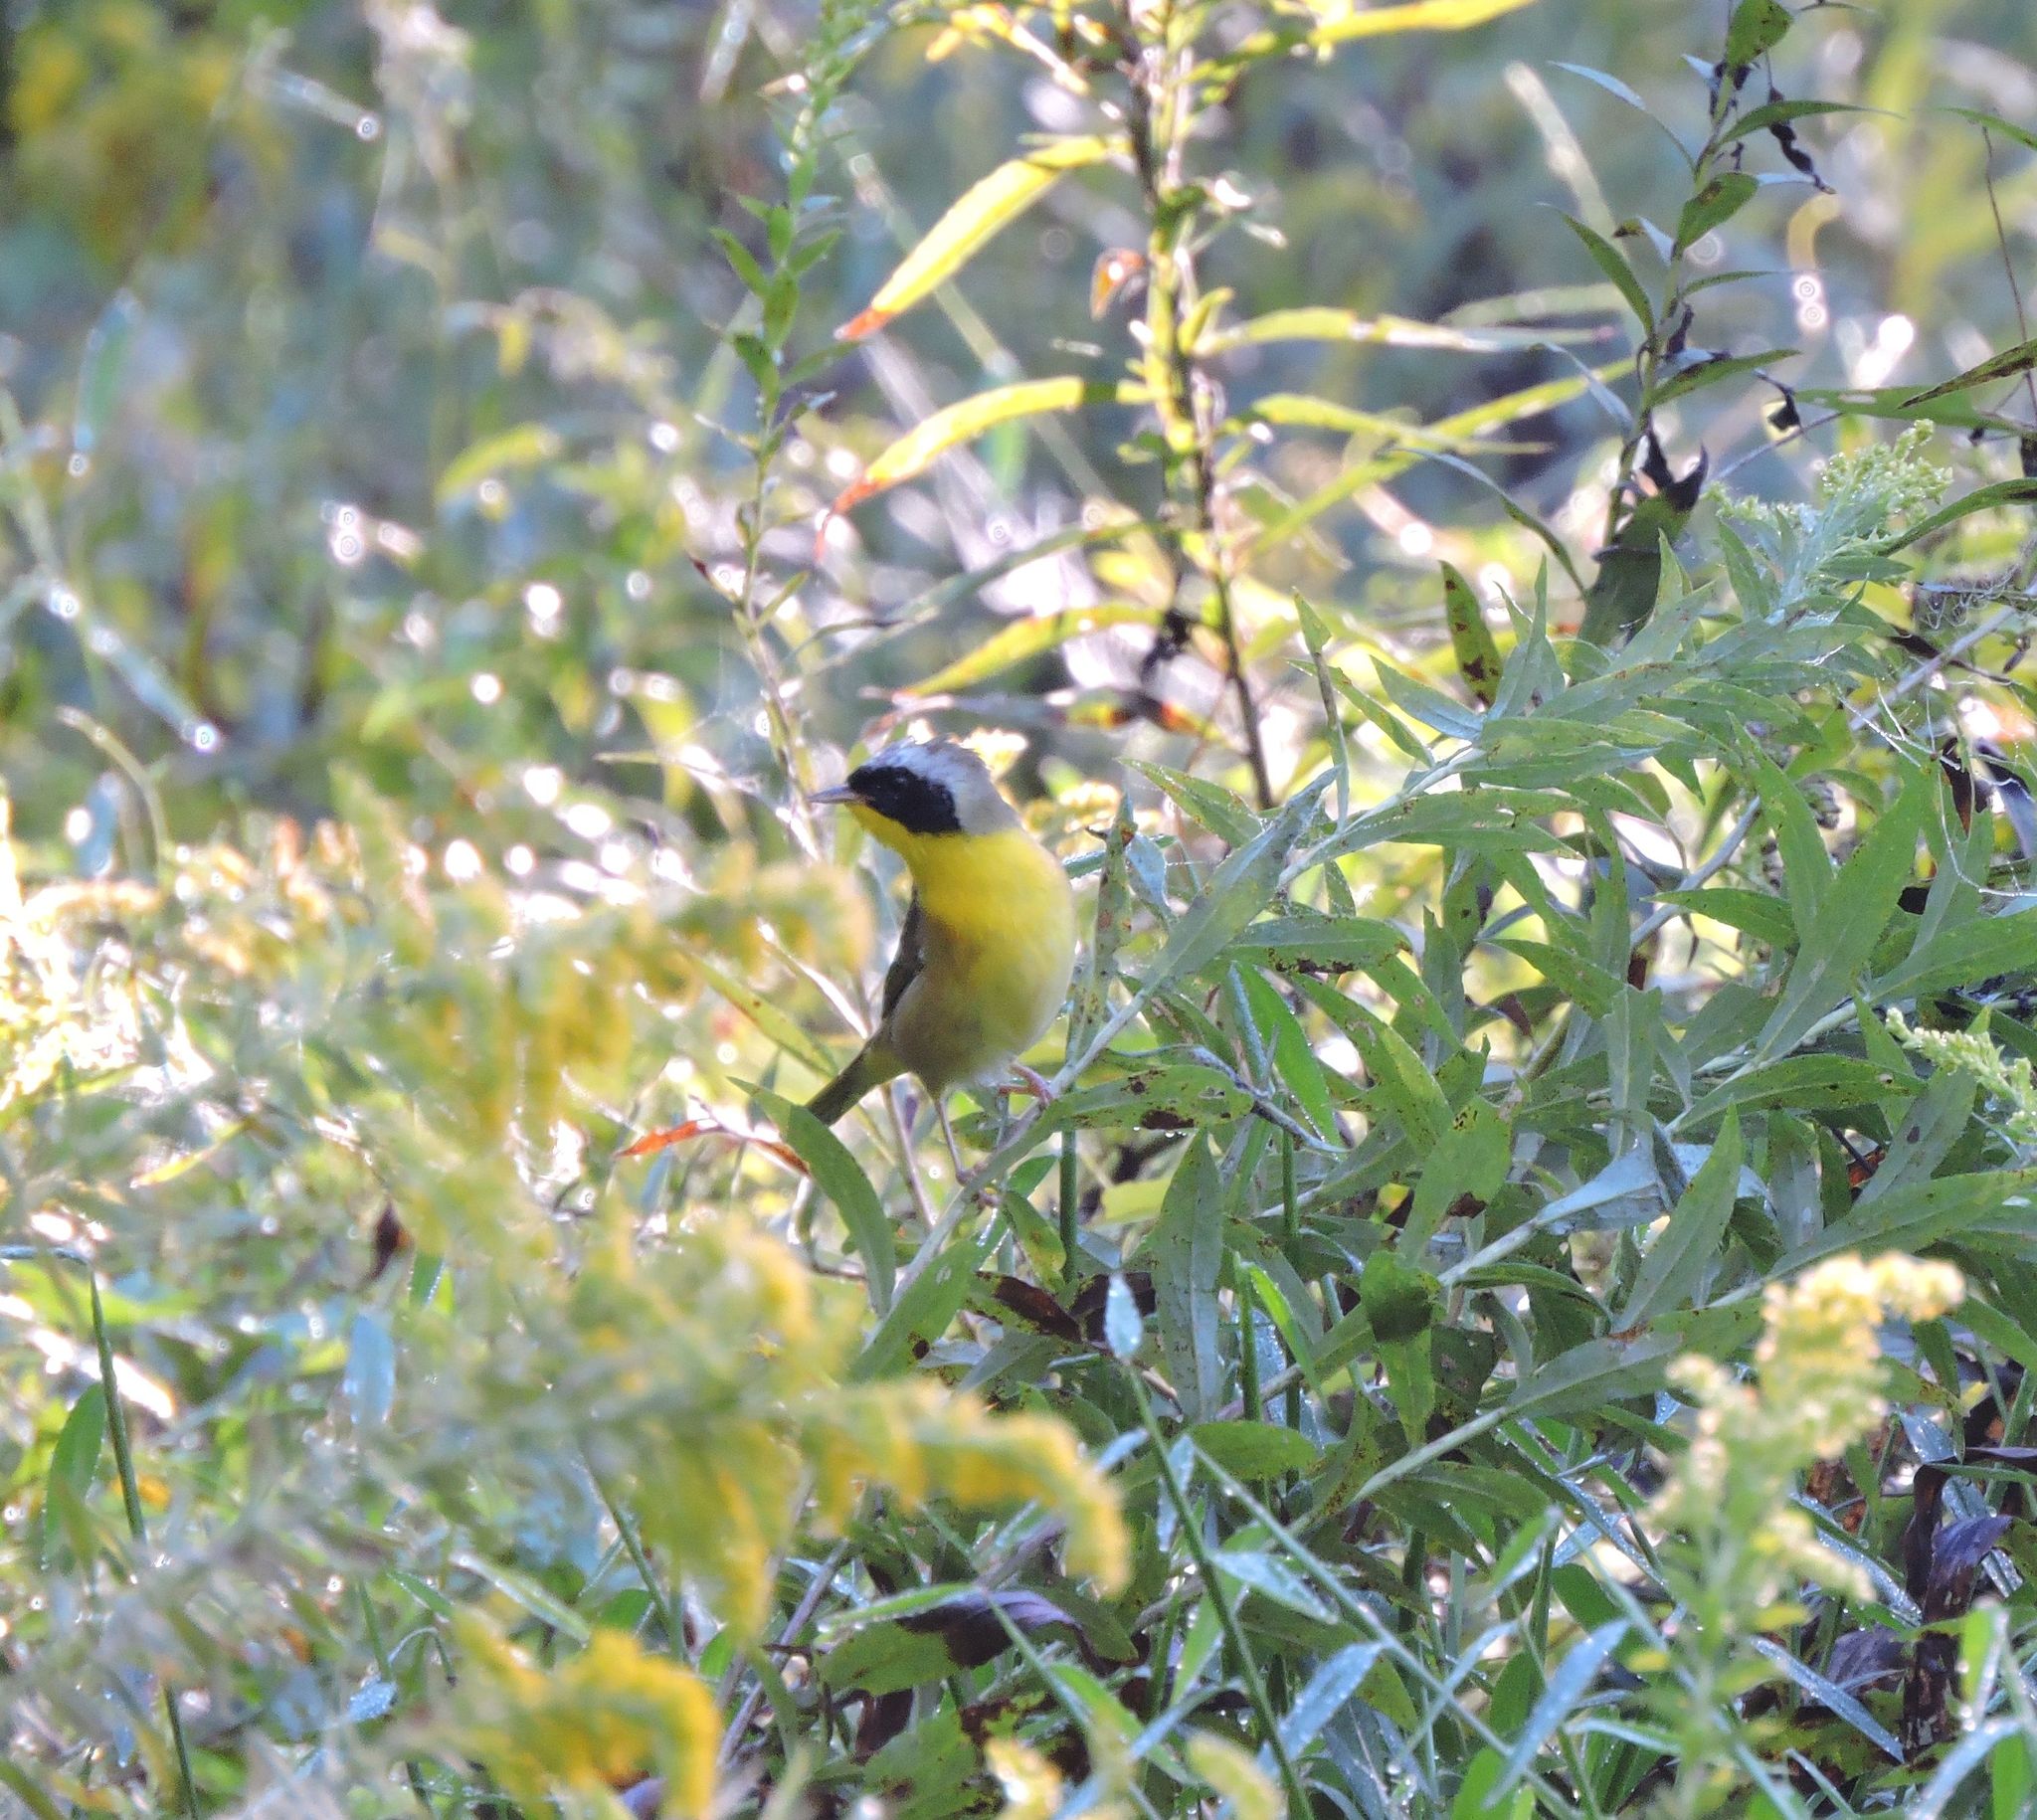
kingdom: Animalia
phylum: Chordata
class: Aves
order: Passeriformes
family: Parulidae
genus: Geothlypis
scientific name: Geothlypis trichas
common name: Common yellowthroat
